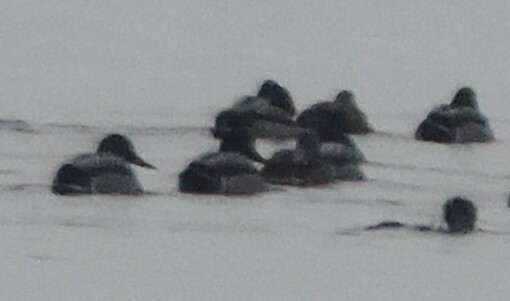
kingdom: Animalia
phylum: Chordata
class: Aves
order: Anseriformes
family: Anatidae
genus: Anas
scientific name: Anas platyrhynchos
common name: Mallard
